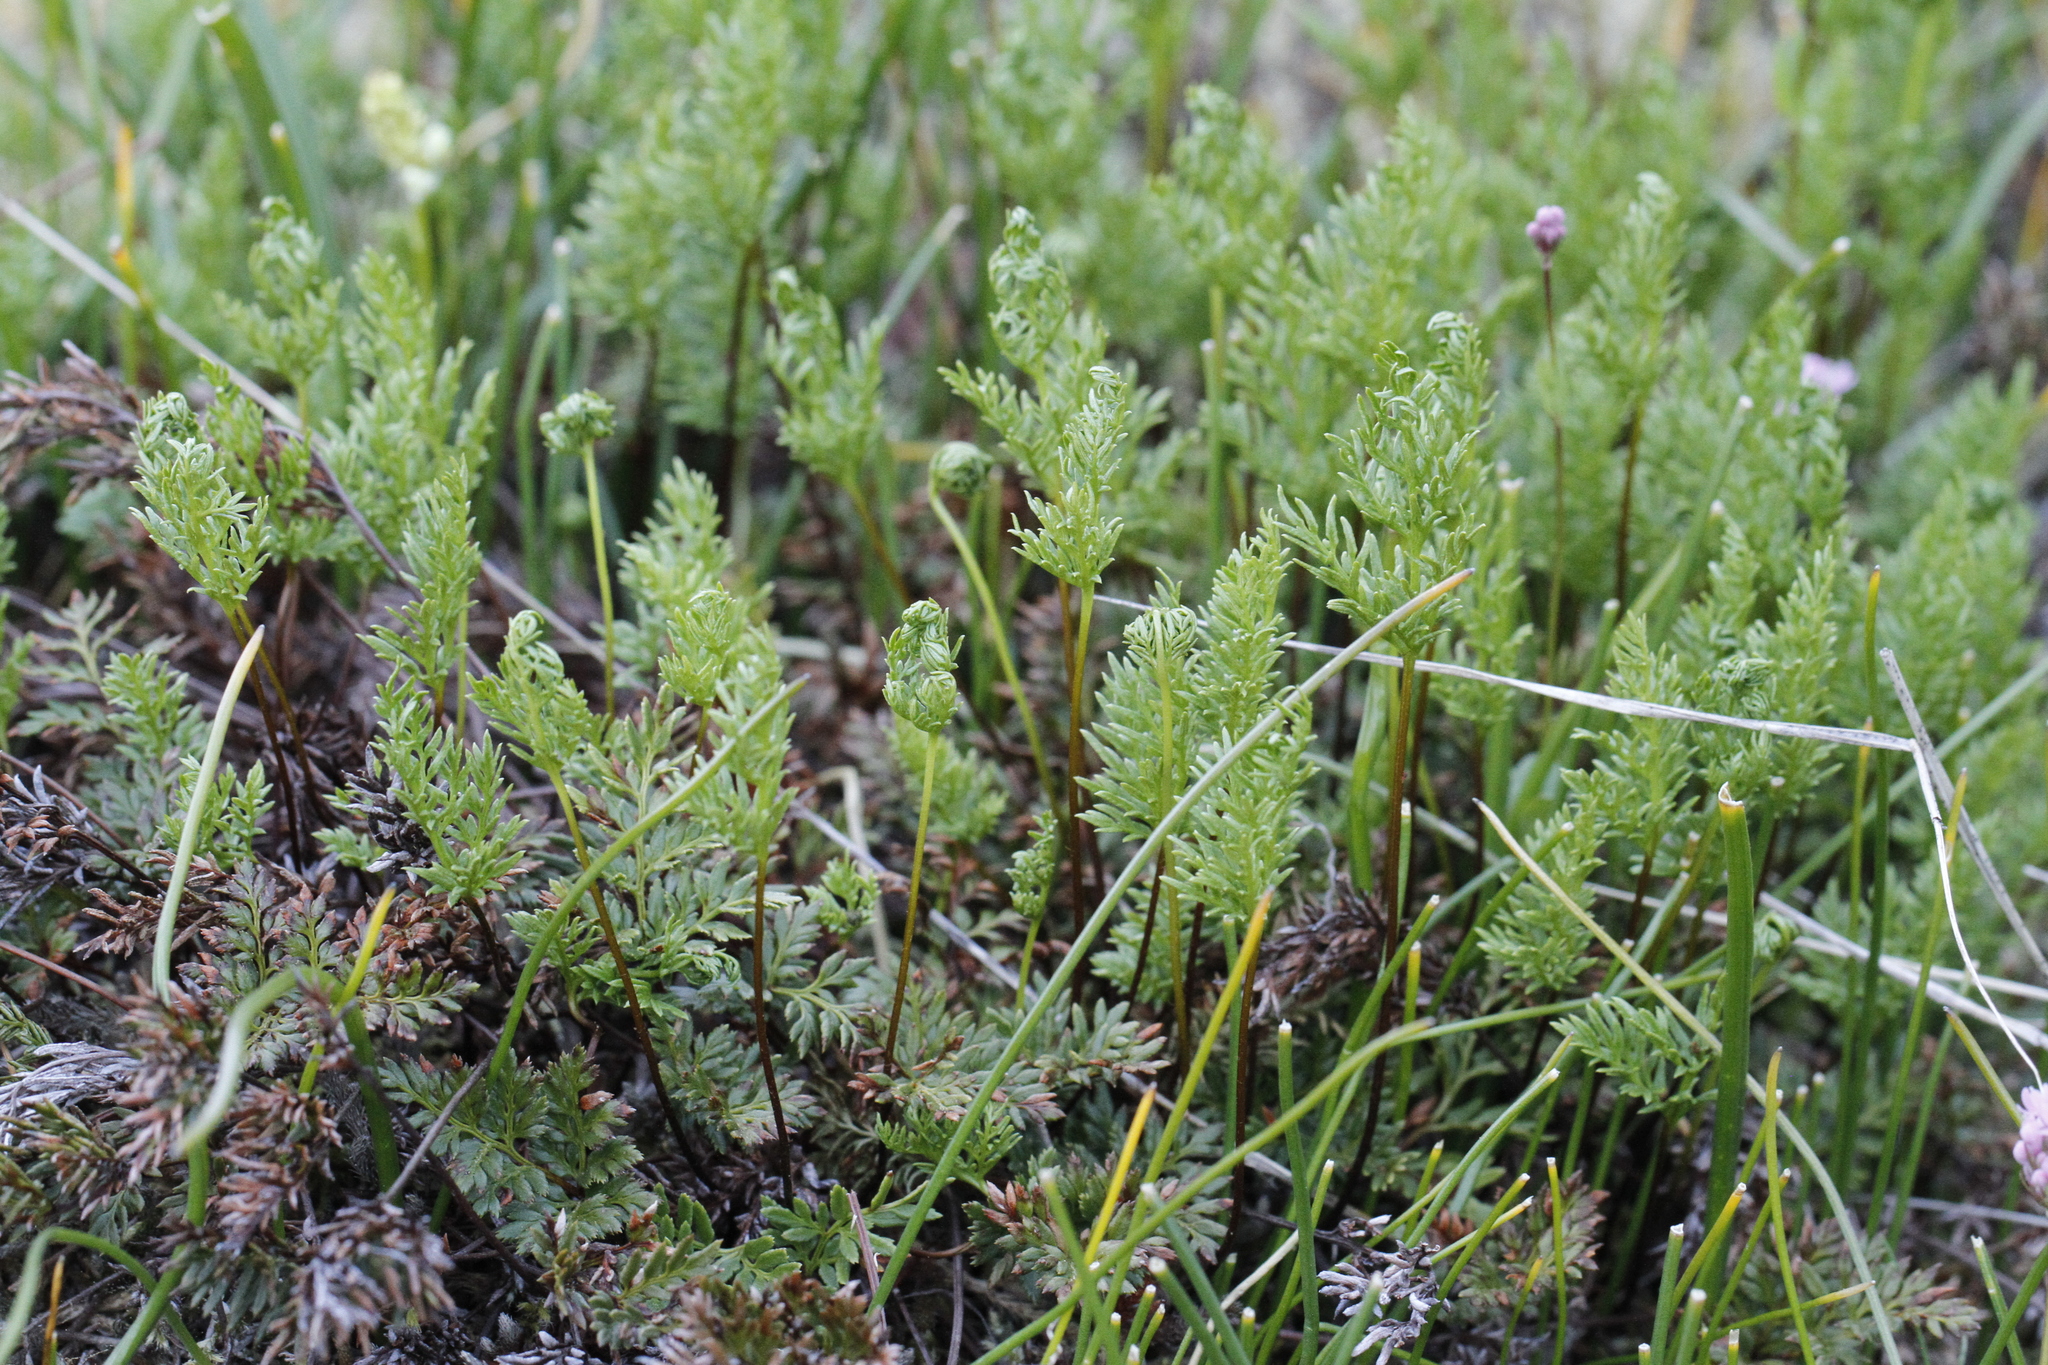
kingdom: Plantae
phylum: Tracheophyta
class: Polypodiopsida
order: Polypodiales
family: Pteridaceae
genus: Aspidotis
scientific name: Aspidotis densa
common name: Indian's dream
